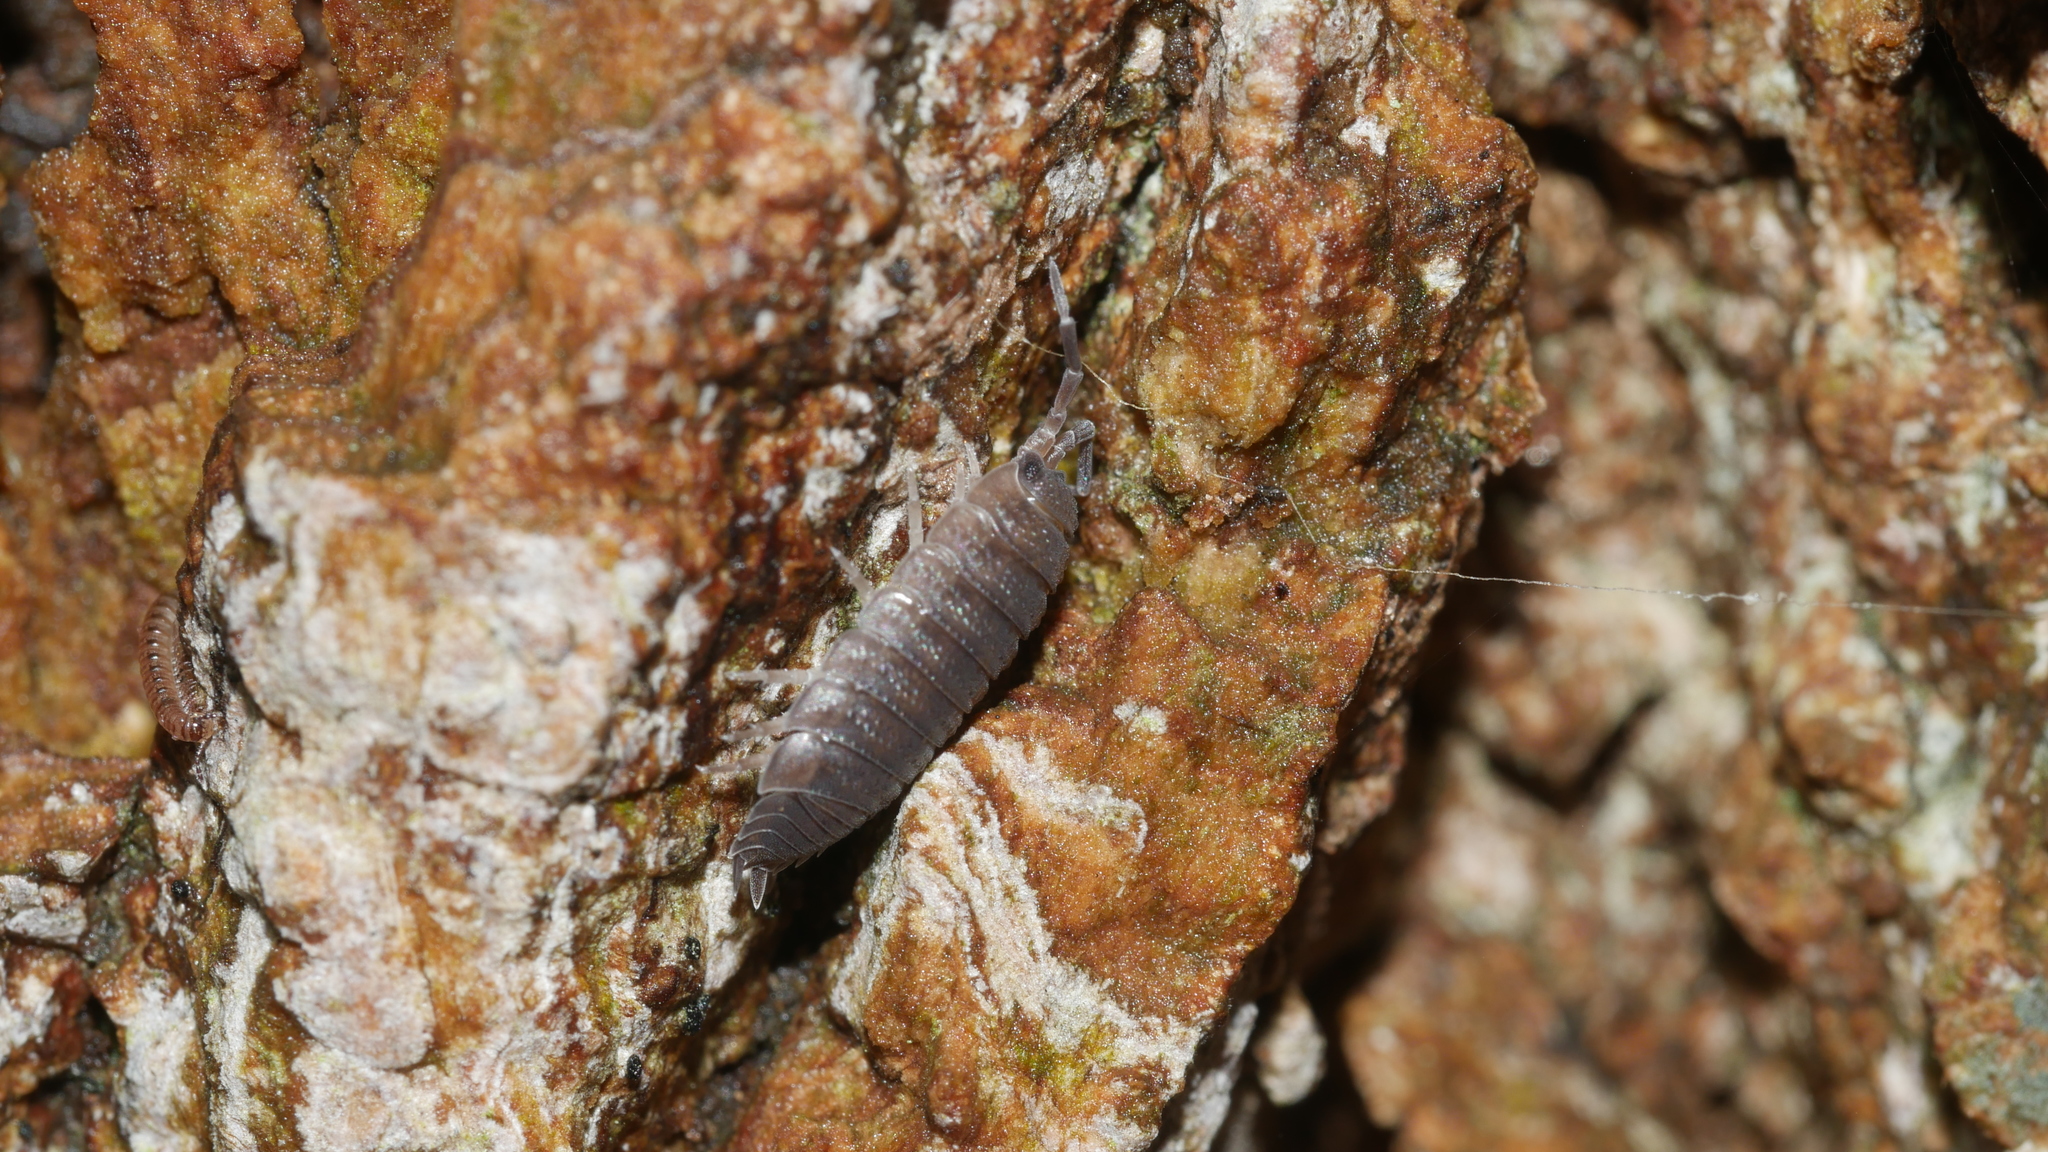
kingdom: Animalia
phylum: Arthropoda
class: Malacostraca
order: Isopoda
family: Porcellionidae
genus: Porcellio
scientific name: Porcellio scaber
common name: Common rough woodlouse
